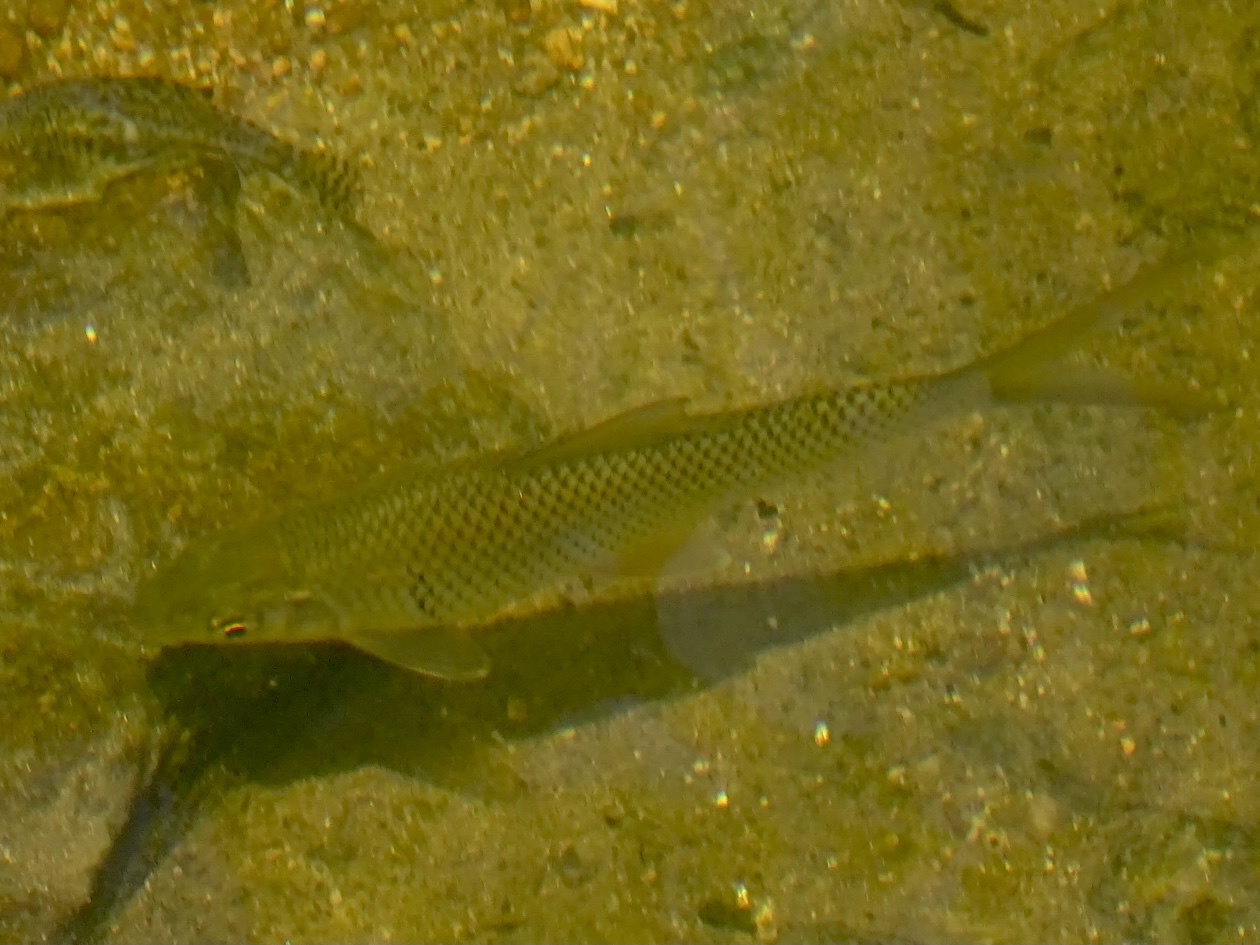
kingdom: Animalia
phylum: Chordata
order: Cypriniformes
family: Cyprinidae
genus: Cirrhinus
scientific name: Cirrhinus molitorella
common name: Mud carp
